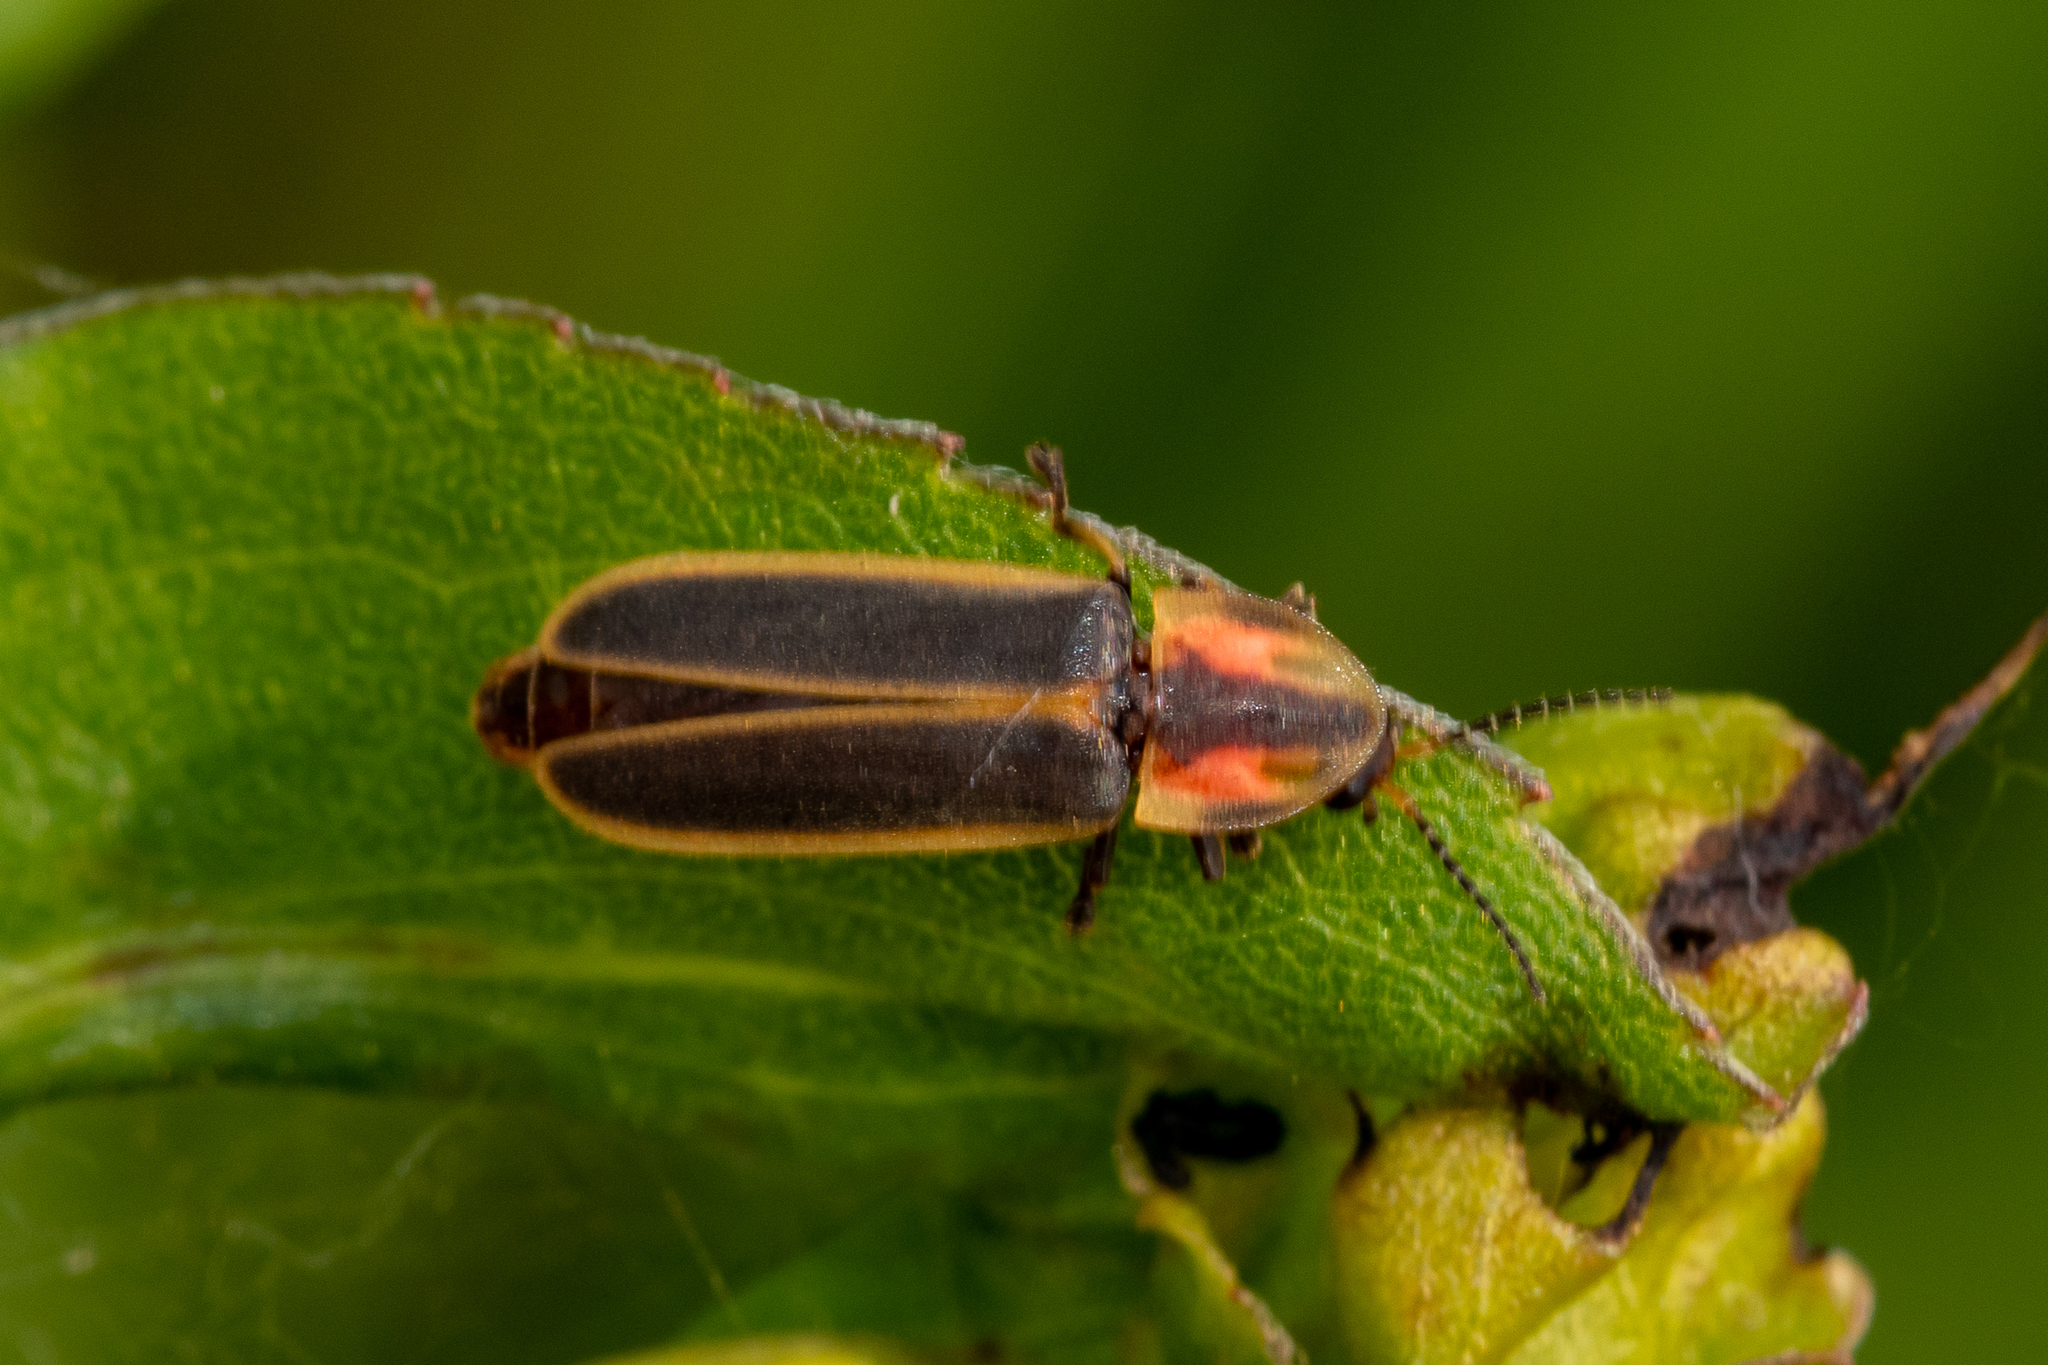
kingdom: Animalia
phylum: Arthropoda
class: Insecta
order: Coleoptera
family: Lampyridae
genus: Pyractomena
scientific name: Pyractomena lucifera
